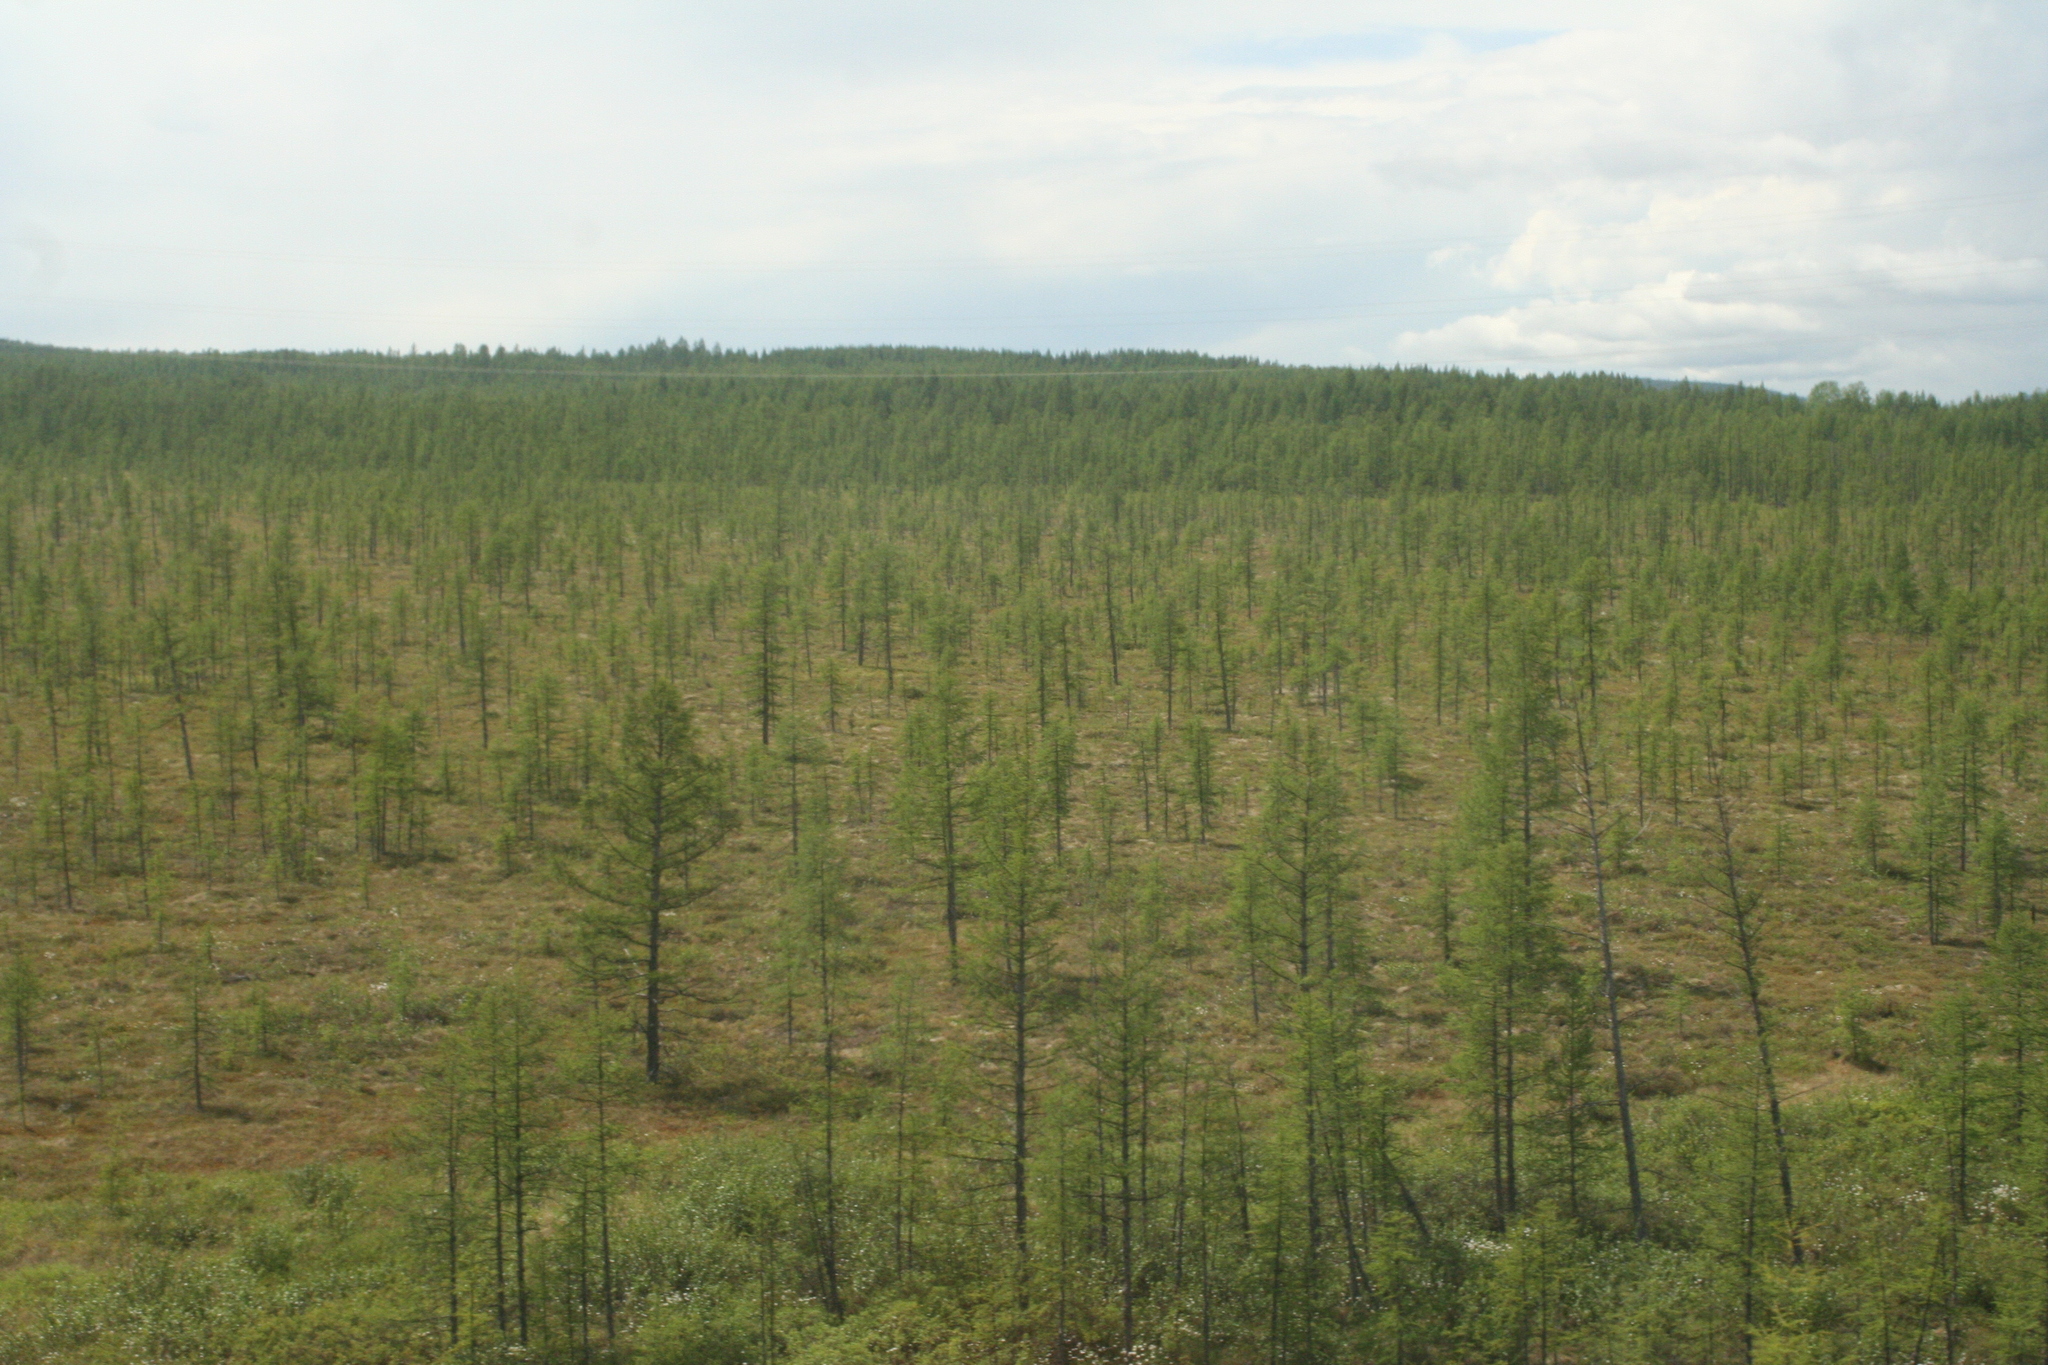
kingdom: Plantae
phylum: Tracheophyta
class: Pinopsida
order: Pinales
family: Pinaceae
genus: Larix
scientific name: Larix gmelinii
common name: Dahurian larch
